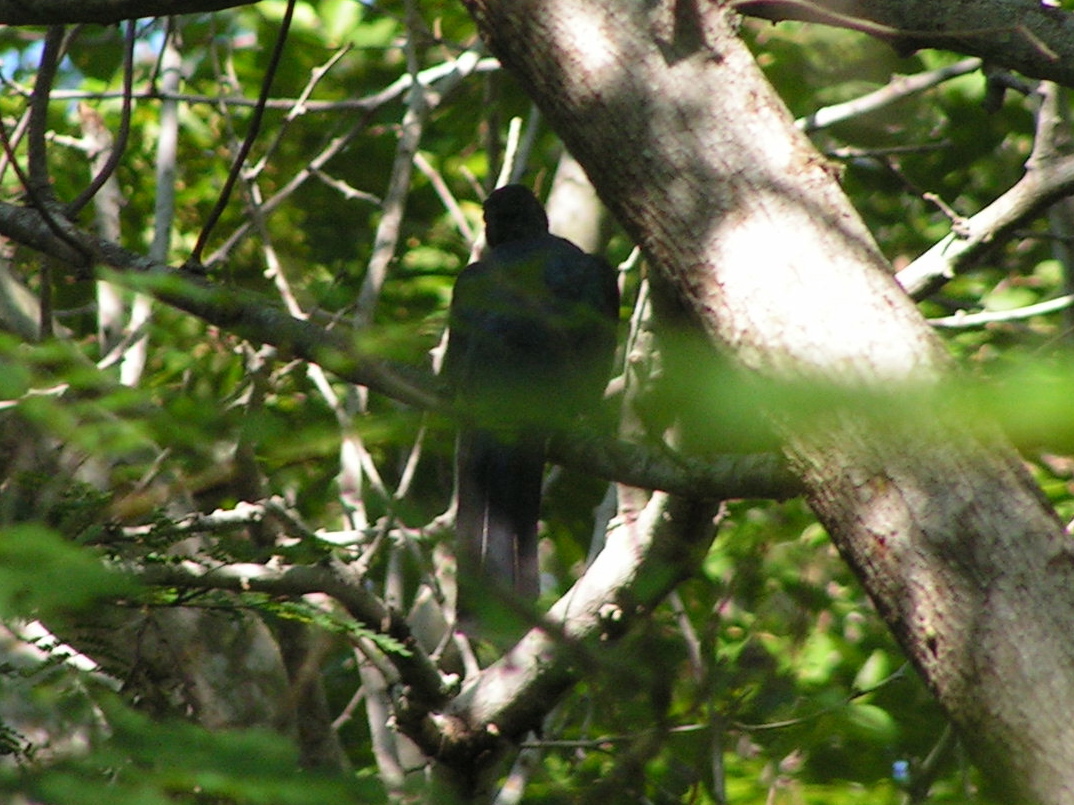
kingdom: Animalia
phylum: Chordata
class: Aves
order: Trogoniformes
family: Trogonidae
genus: Trogon
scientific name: Trogon citreolus
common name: Citreoline trogon
